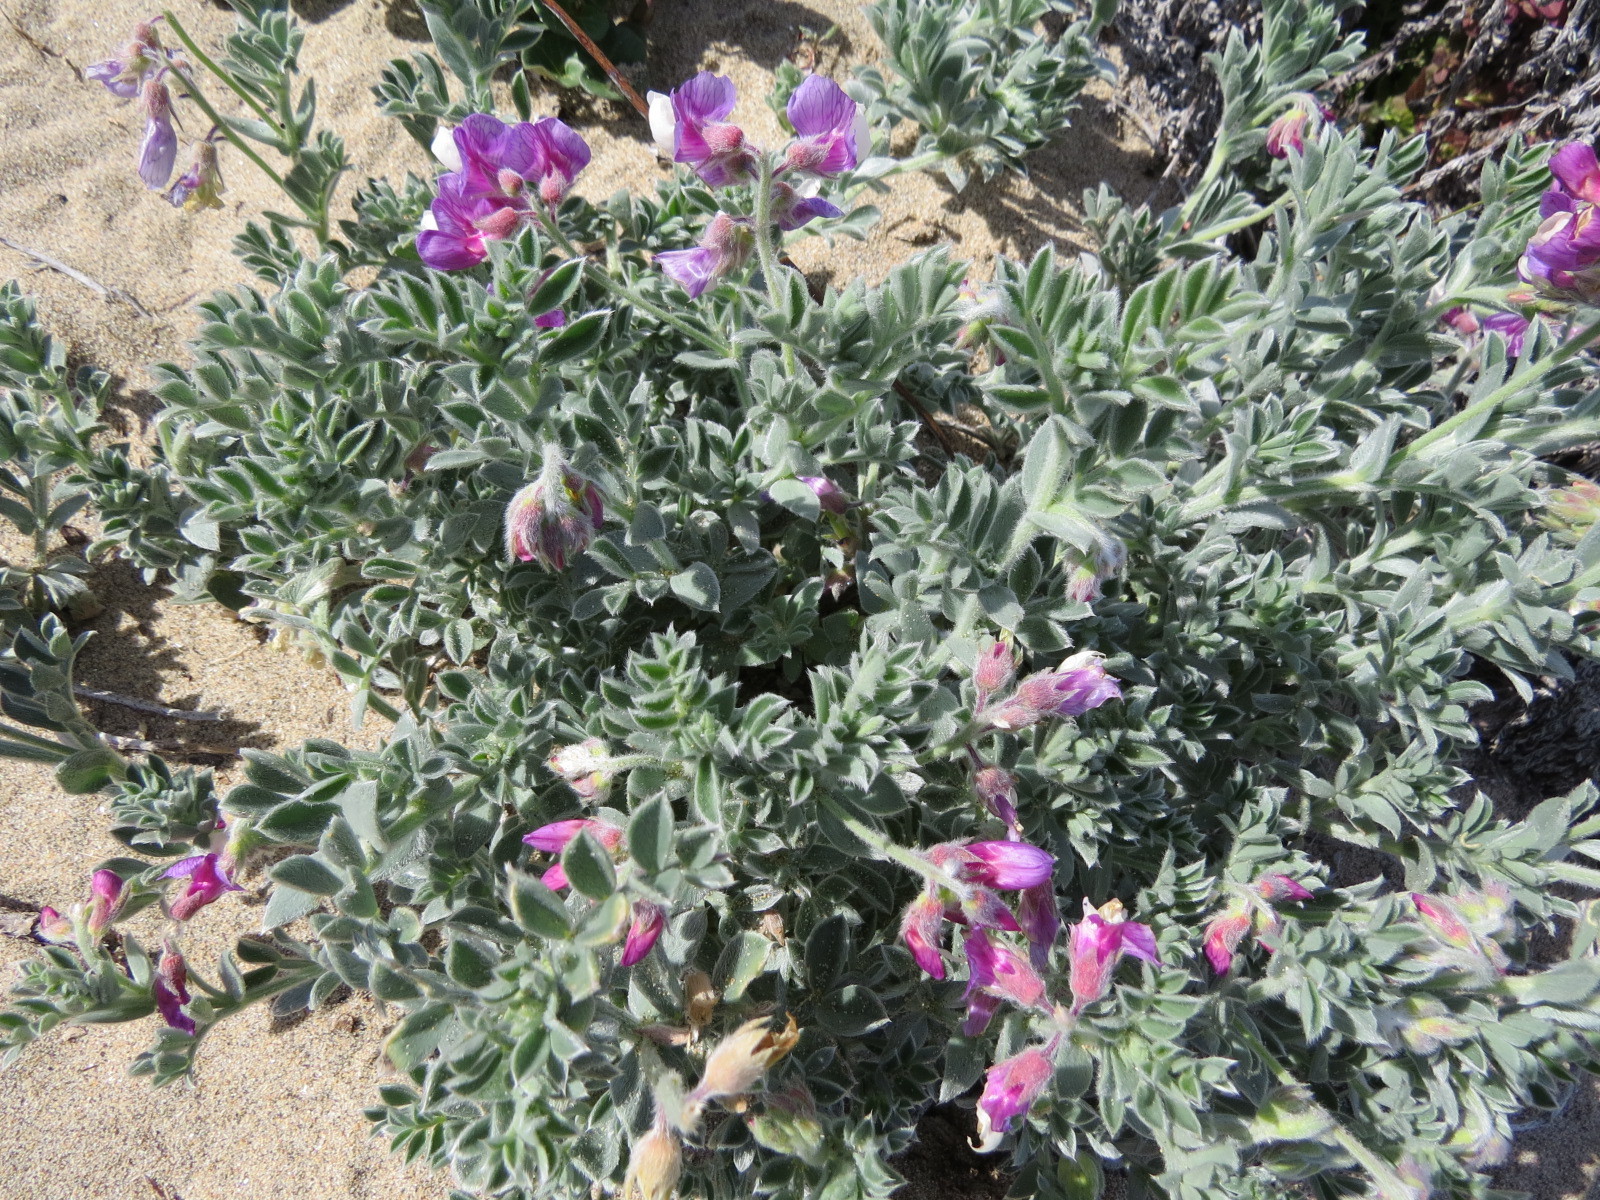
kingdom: Plantae
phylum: Tracheophyta
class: Magnoliopsida
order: Fabales
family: Fabaceae
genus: Lathyrus
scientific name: Lathyrus littoralis
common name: Dune sweet pea
